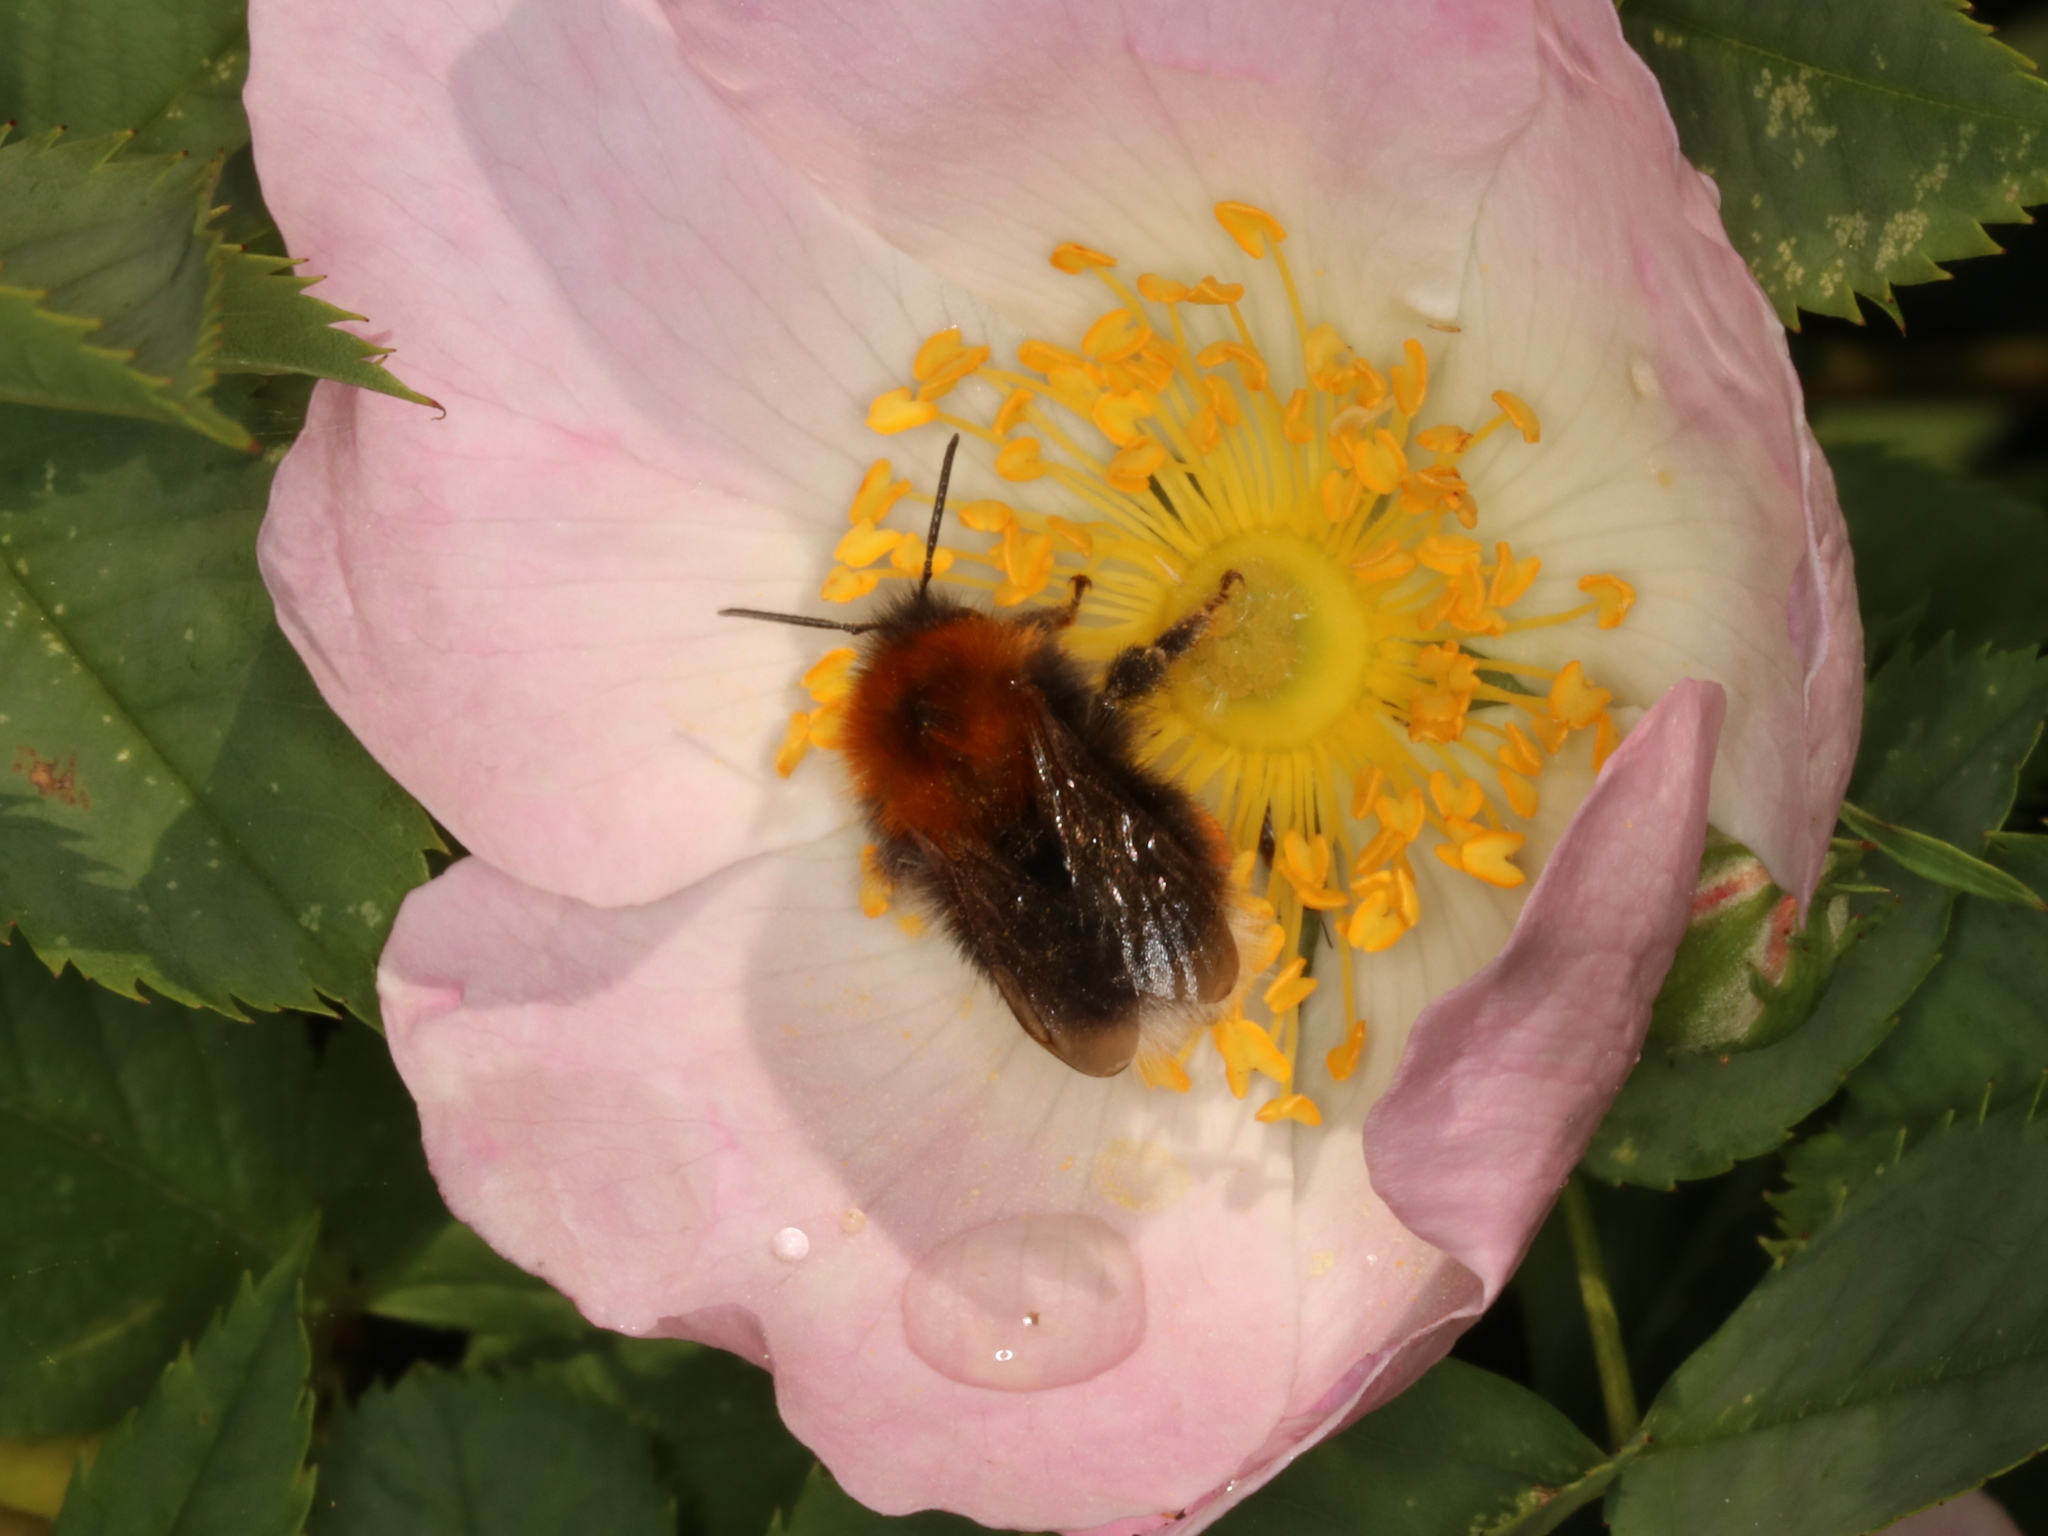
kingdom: Animalia
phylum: Arthropoda
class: Insecta
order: Hymenoptera
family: Apidae
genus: Bombus
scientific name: Bombus hypnorum
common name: New garden bumblebee
